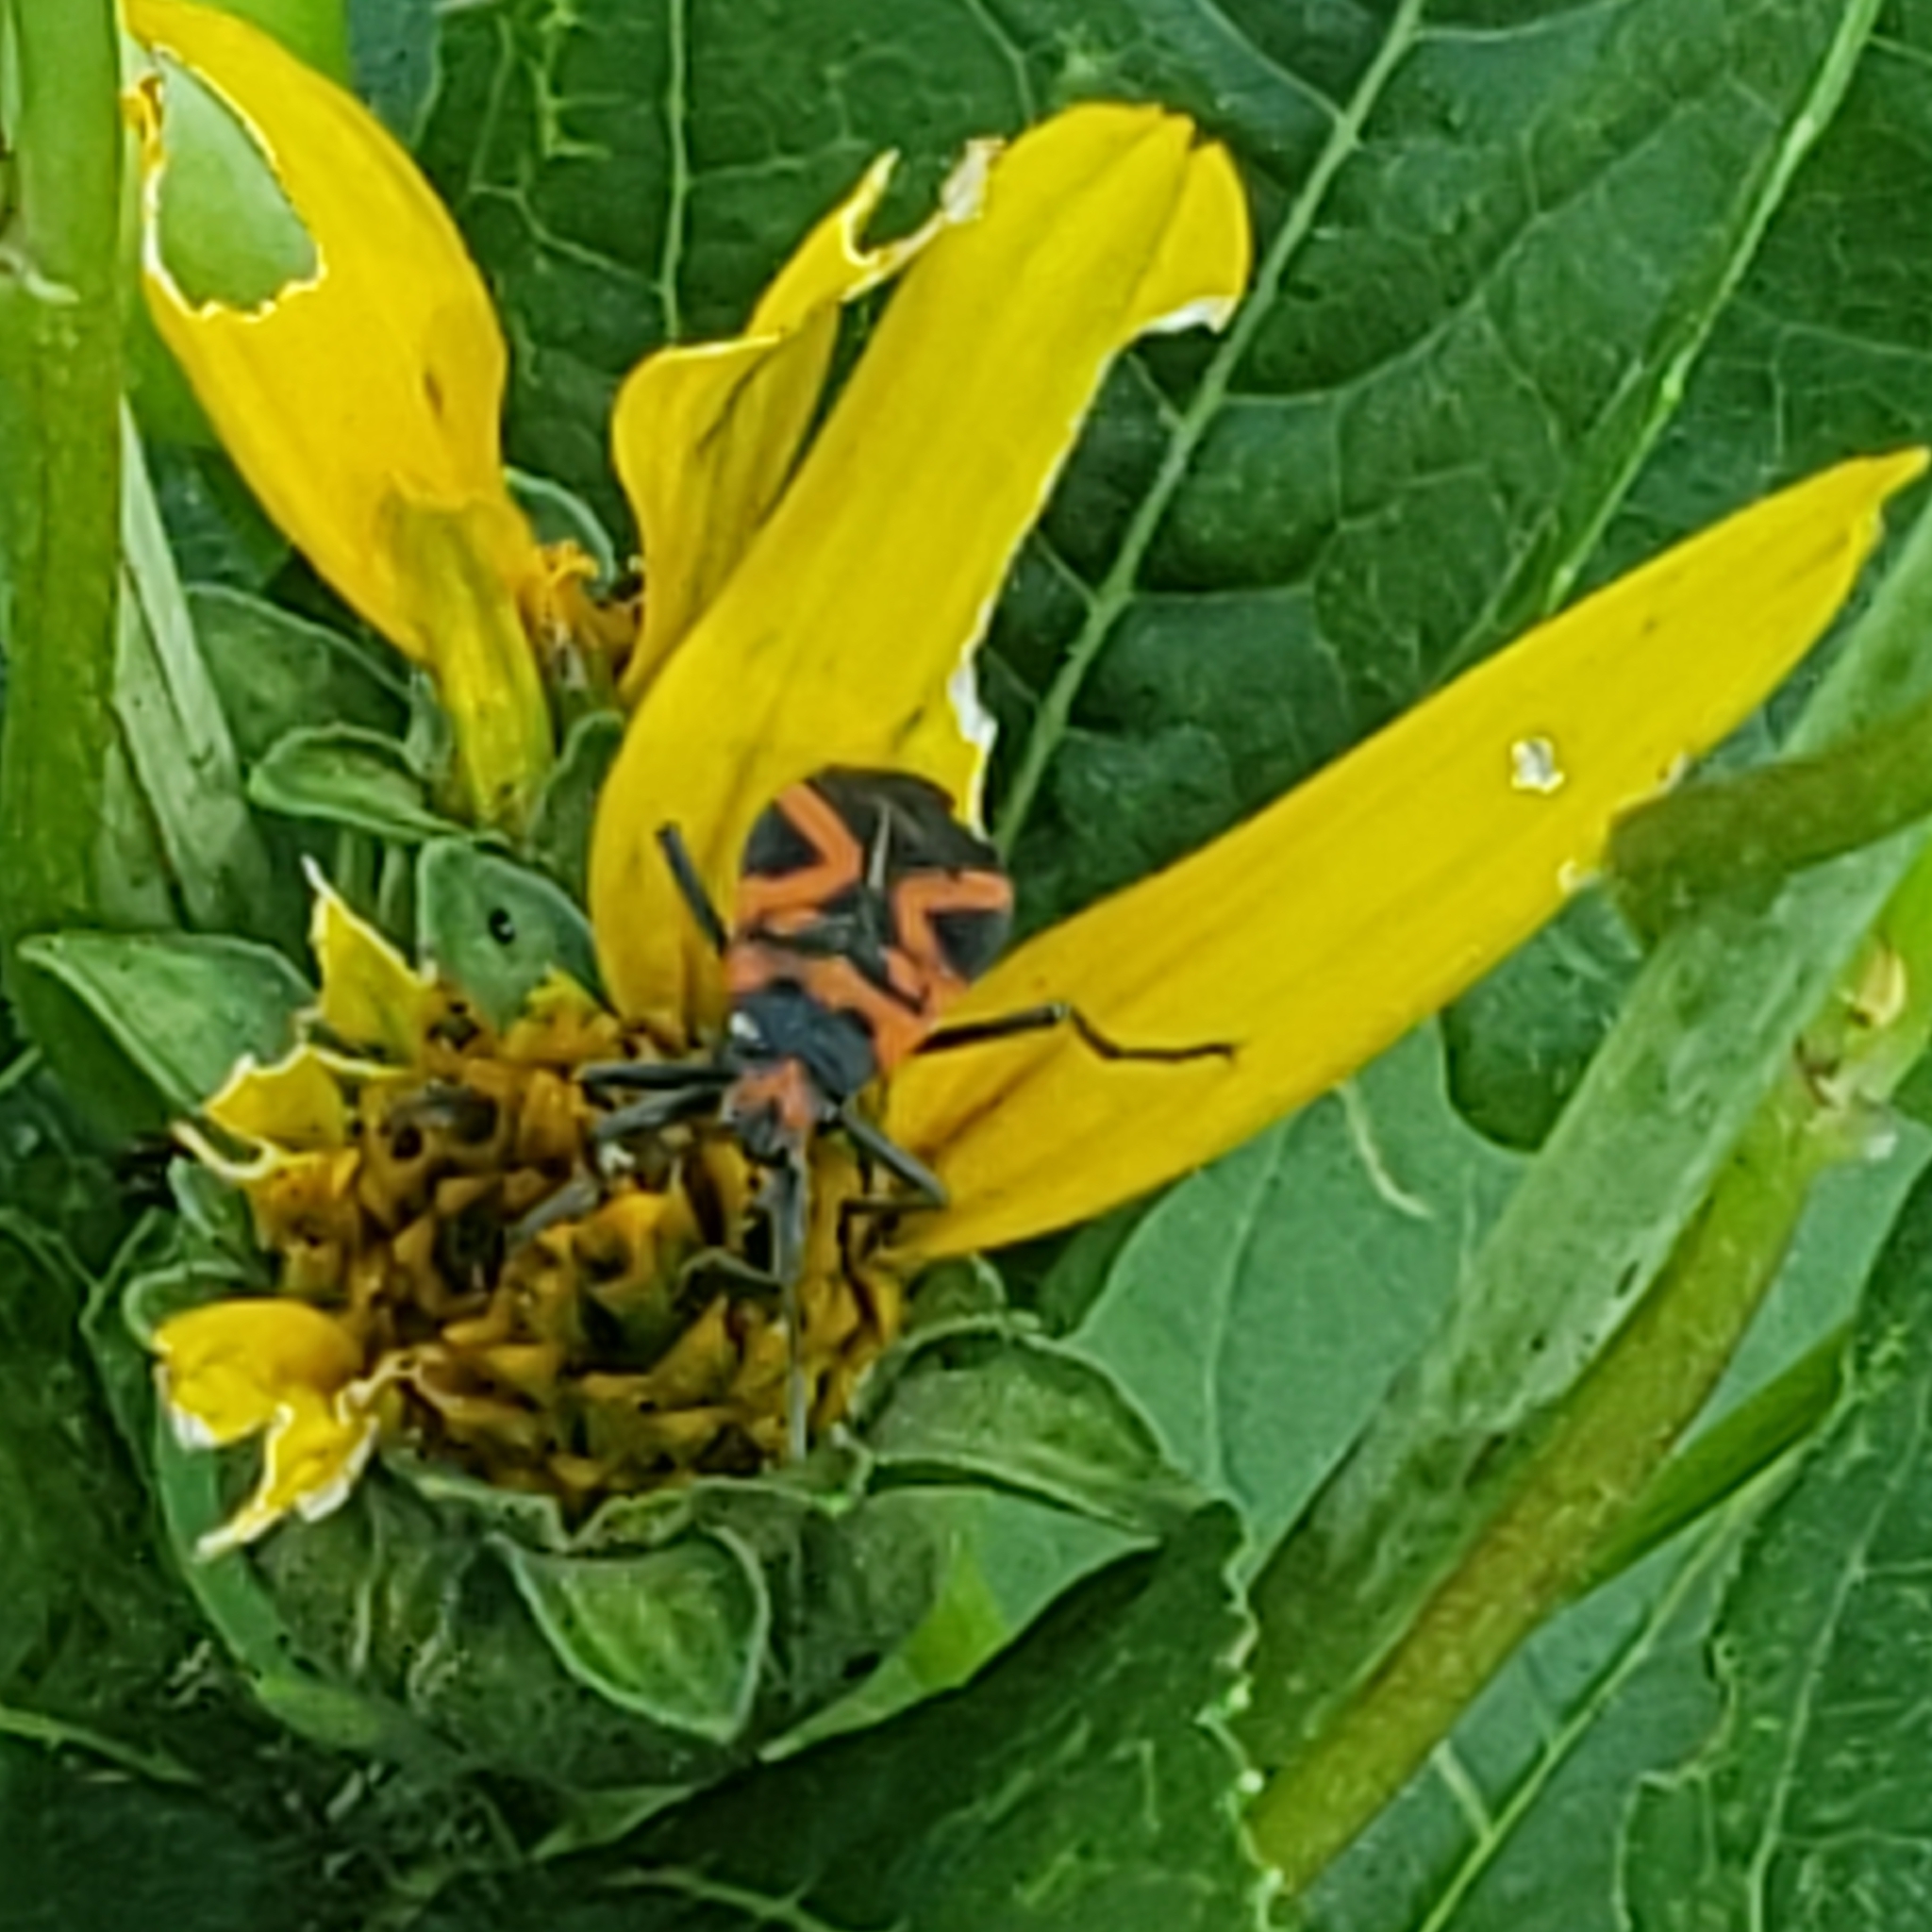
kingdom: Animalia
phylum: Arthropoda
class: Insecta
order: Hemiptera
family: Lygaeidae
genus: Lygaeus
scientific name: Lygaeus turcicus
